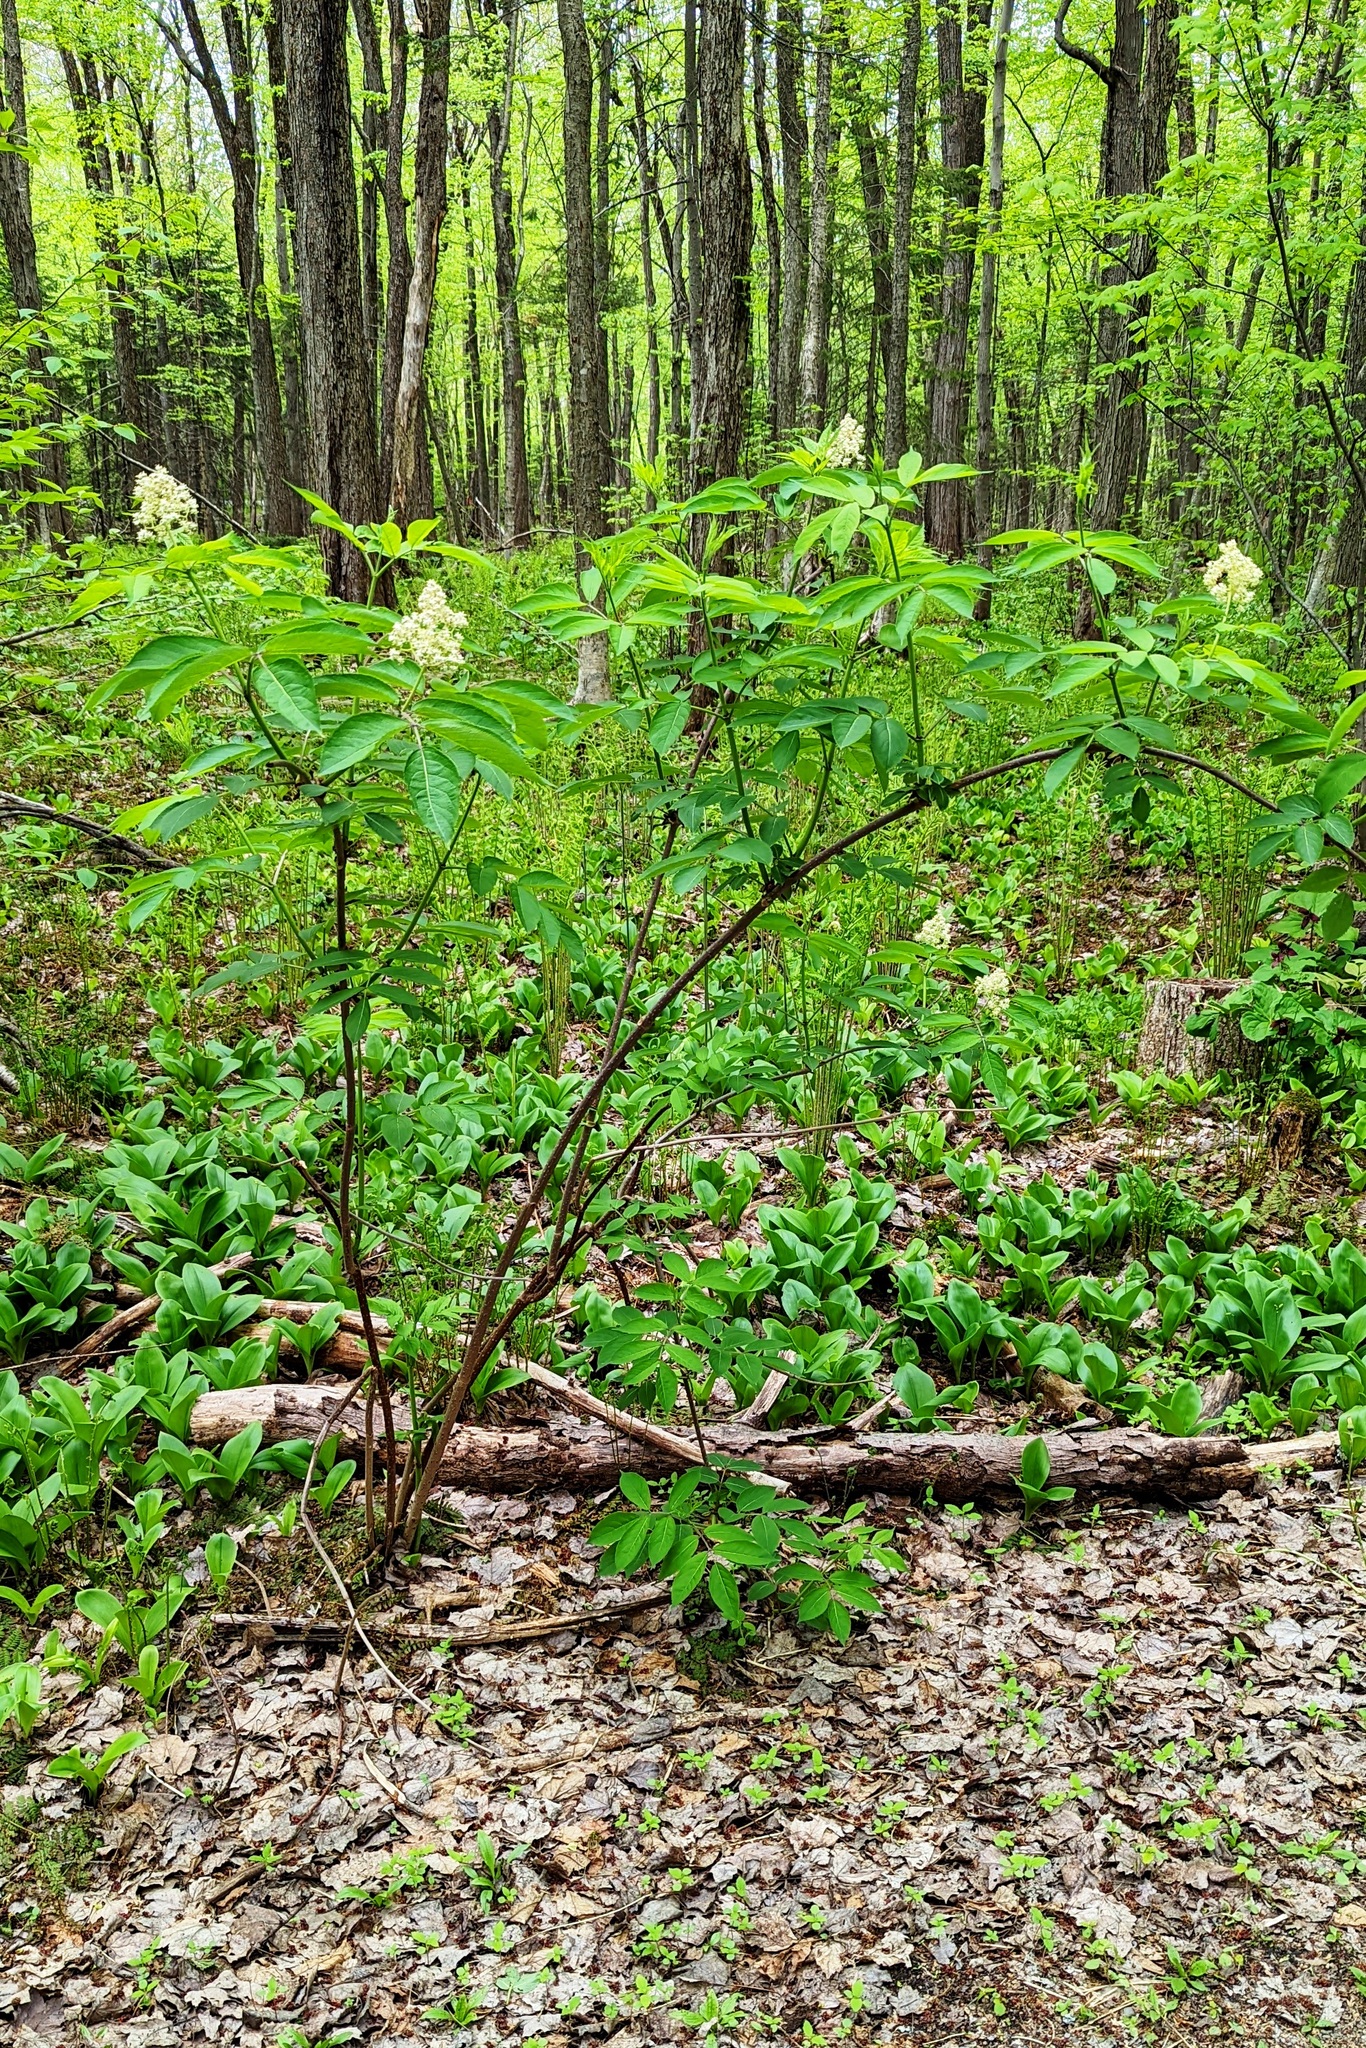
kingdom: Plantae
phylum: Tracheophyta
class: Magnoliopsida
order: Dipsacales
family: Viburnaceae
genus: Sambucus
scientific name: Sambucus racemosa
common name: Red-berried elder
